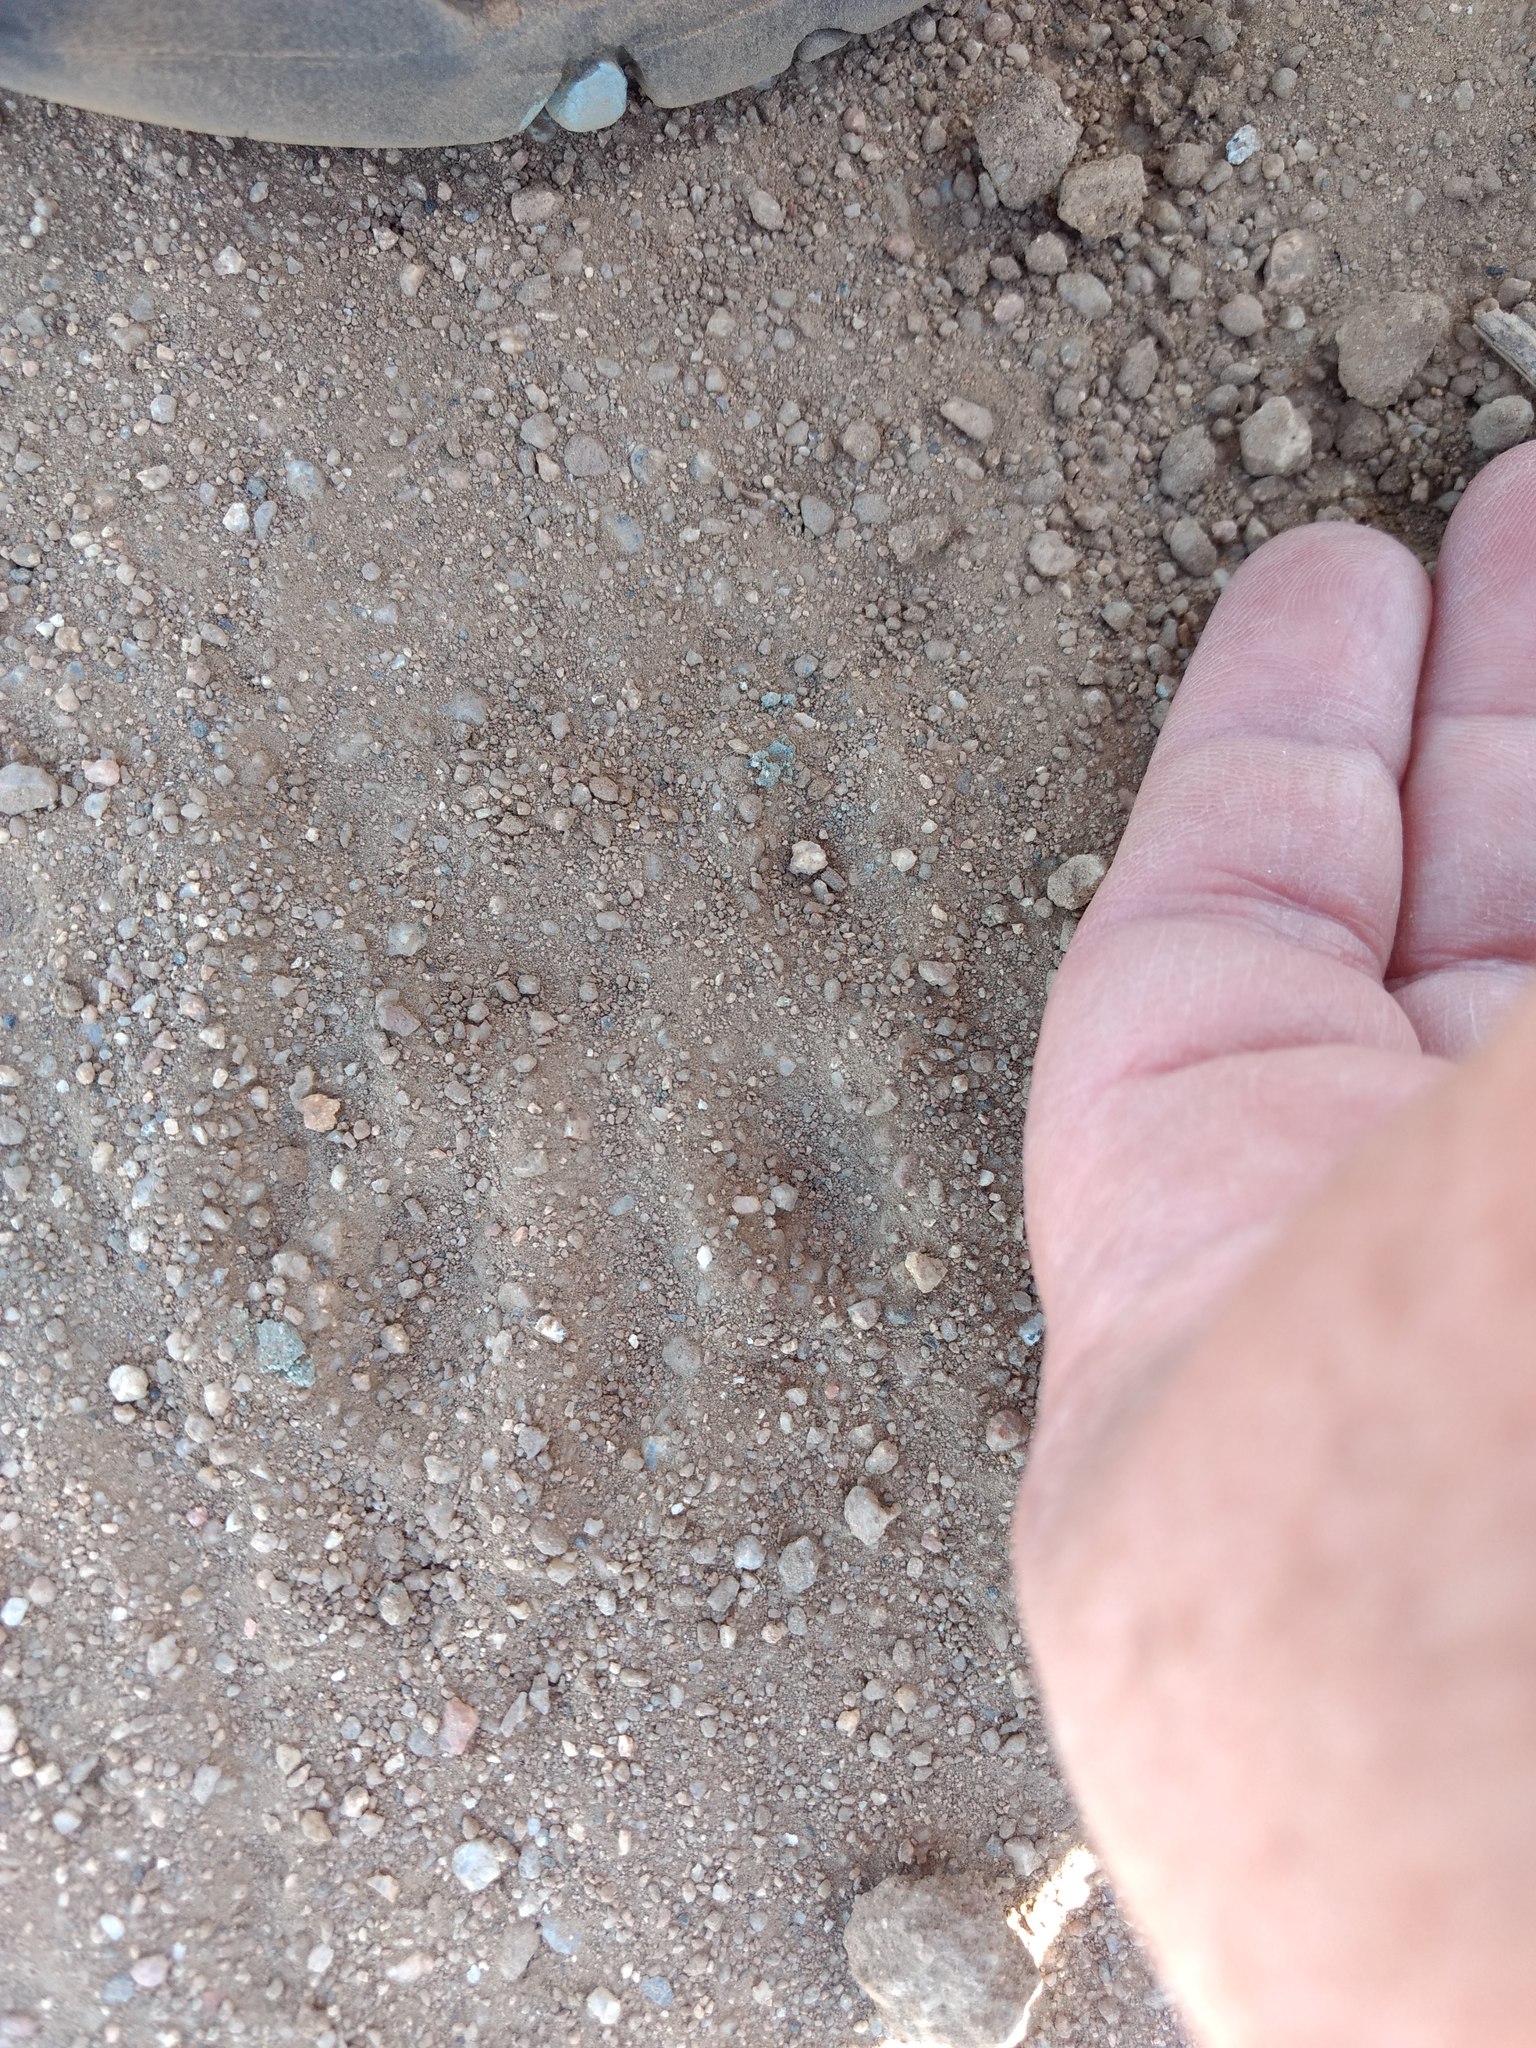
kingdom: Animalia
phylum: Chordata
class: Mammalia
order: Carnivora
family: Procyonidae
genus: Procyon
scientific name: Procyon lotor
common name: Raccoon
